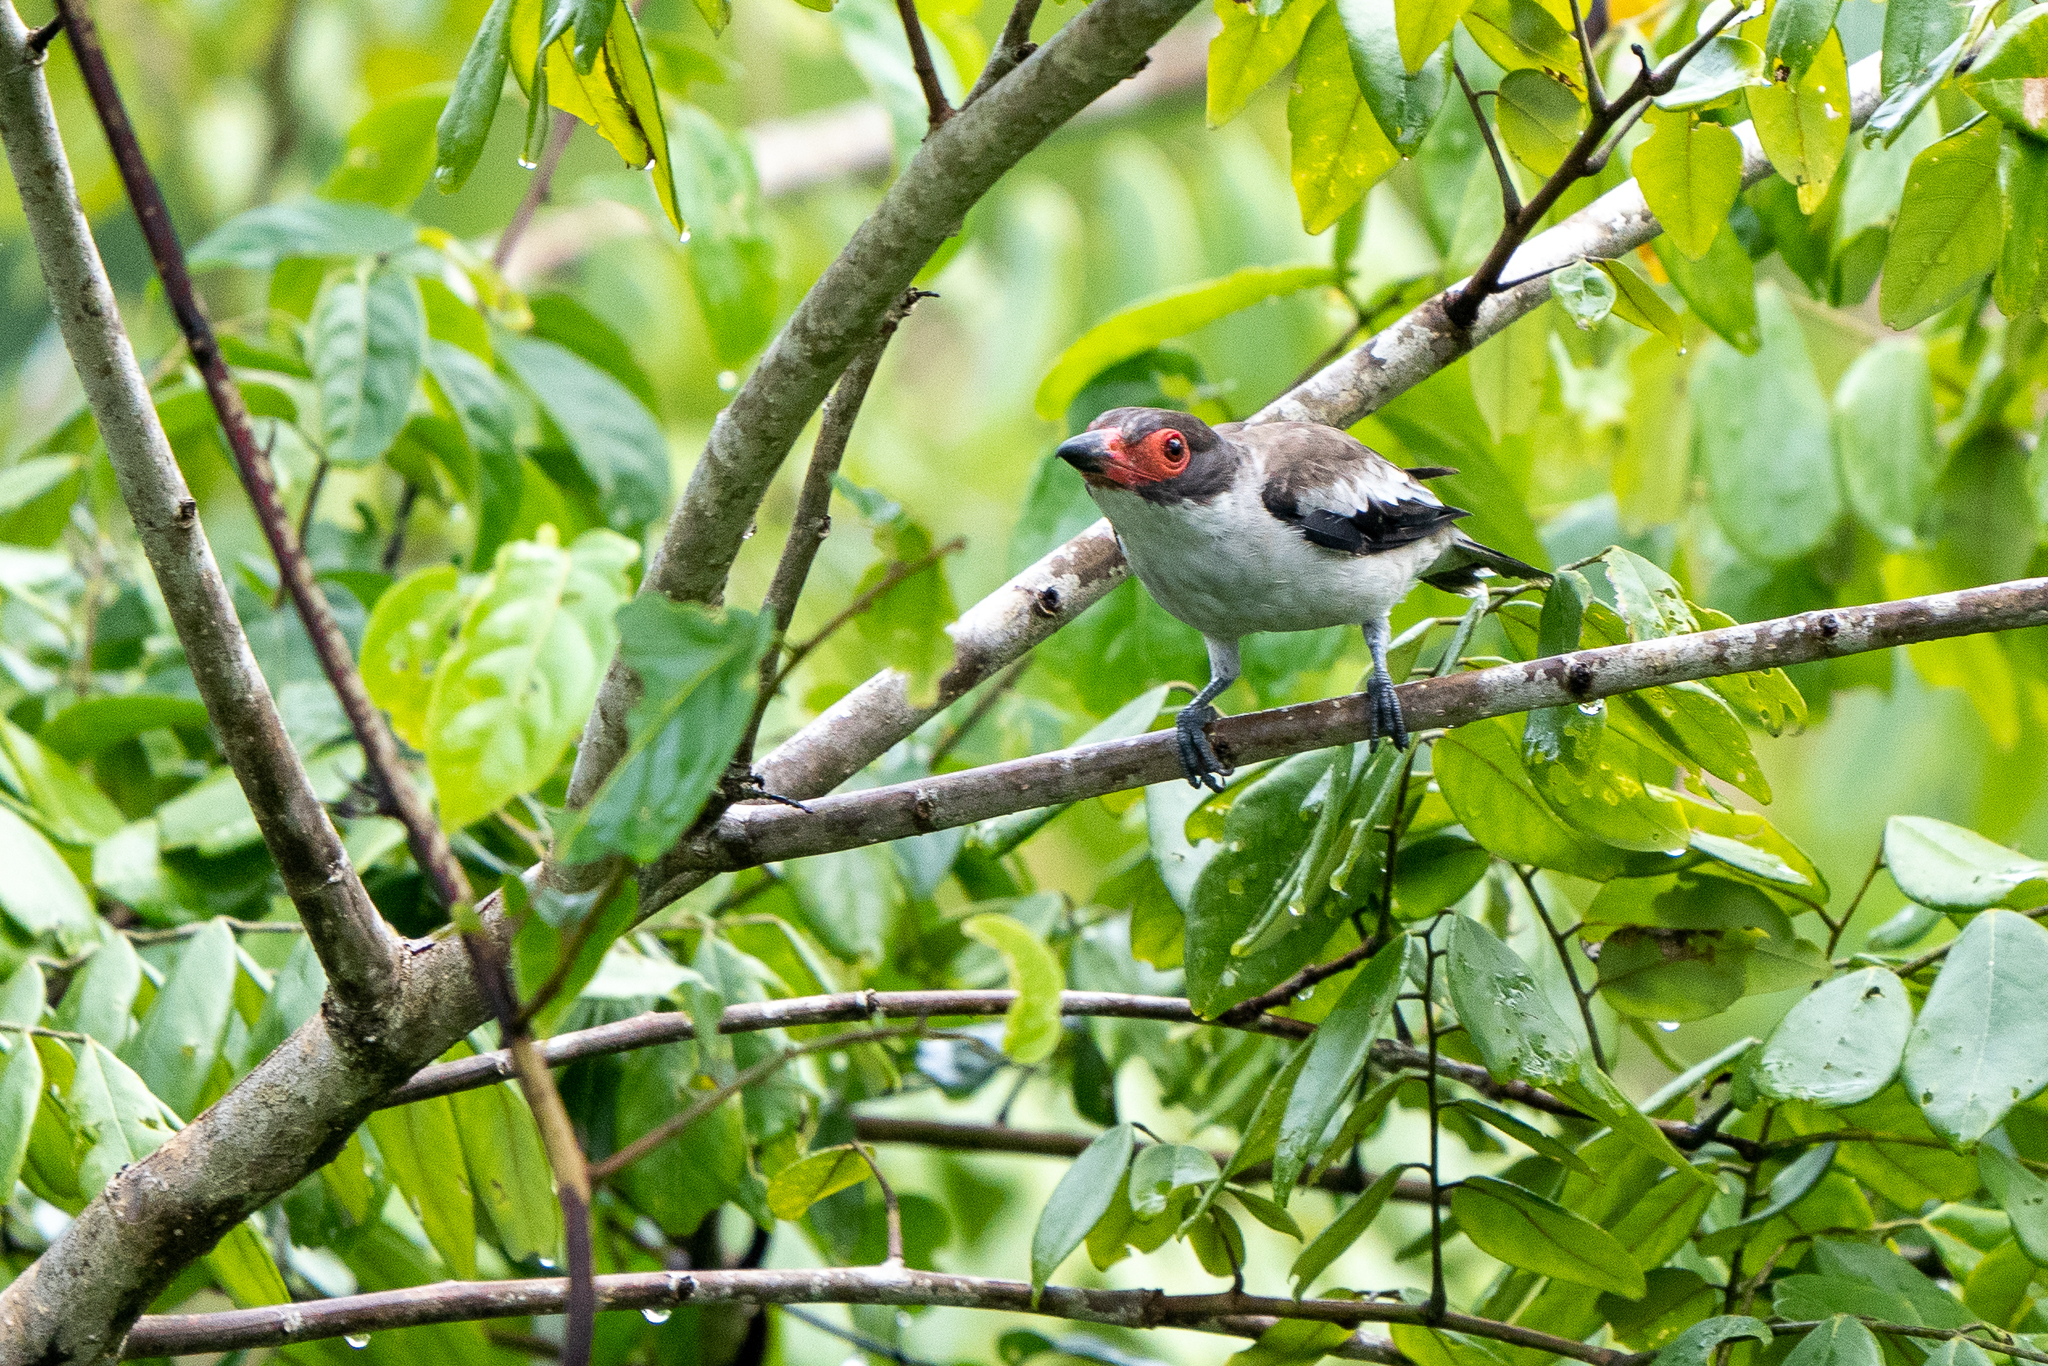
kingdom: Animalia
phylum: Chordata
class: Aves
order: Passeriformes
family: Cotingidae
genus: Tityra
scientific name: Tityra semifasciata
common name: Masked tityra
